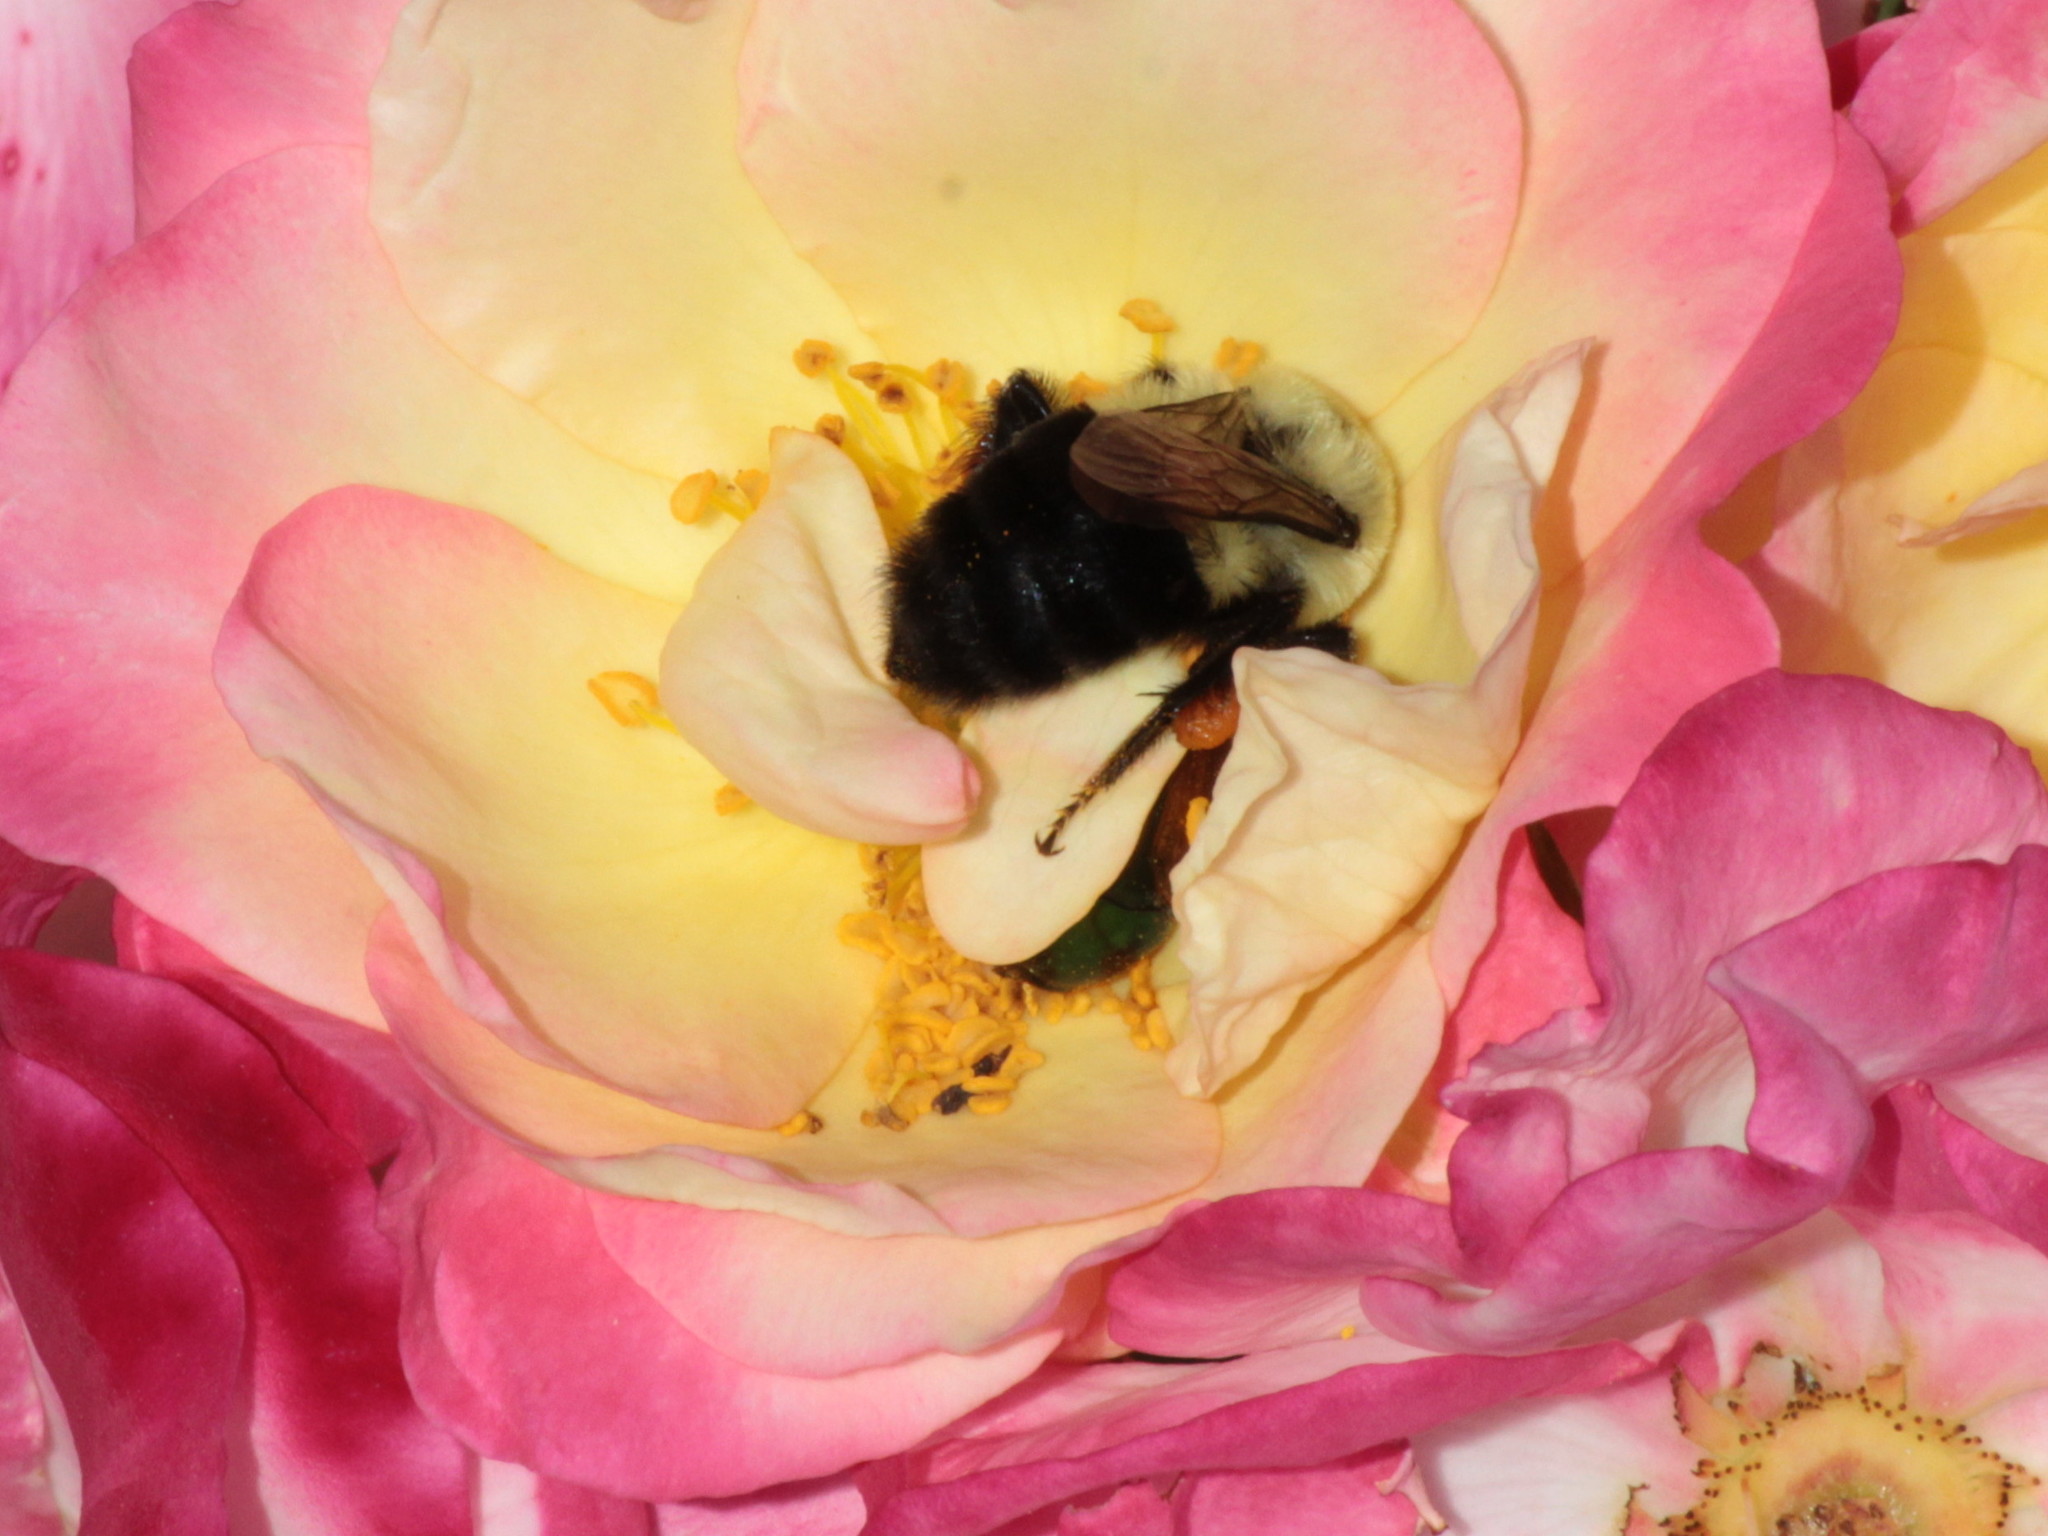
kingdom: Animalia
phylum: Arthropoda
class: Insecta
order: Hymenoptera
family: Apidae
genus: Bombus
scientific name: Bombus impatiens
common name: Common eastern bumble bee
